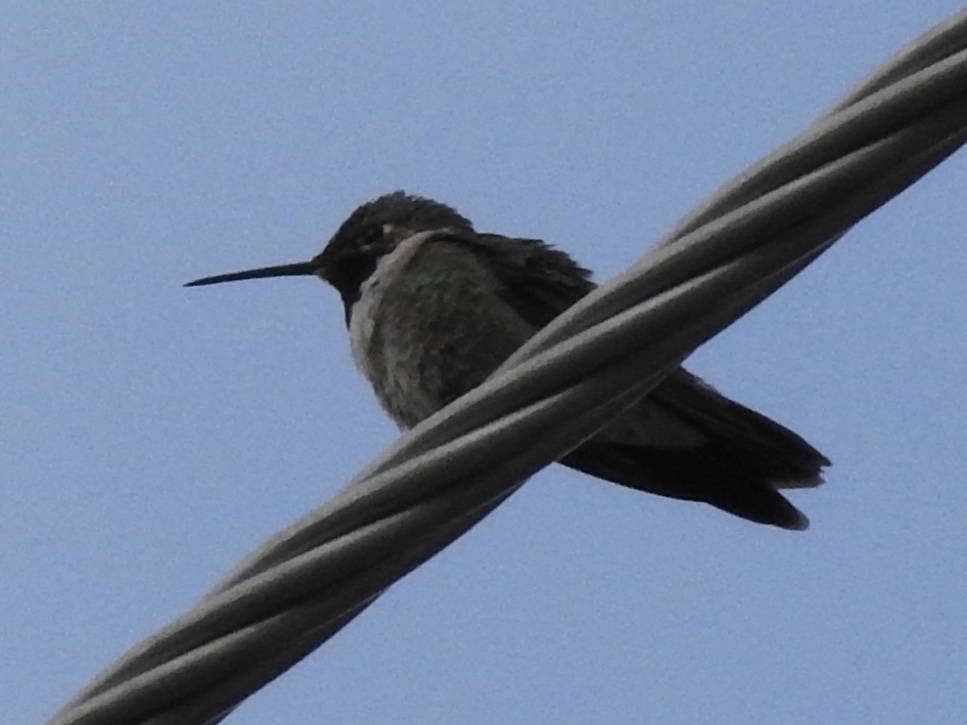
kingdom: Animalia
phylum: Chordata
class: Aves
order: Apodiformes
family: Trochilidae
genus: Selasphorus
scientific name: Selasphorus platycercus
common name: Broad-tailed hummingbird
